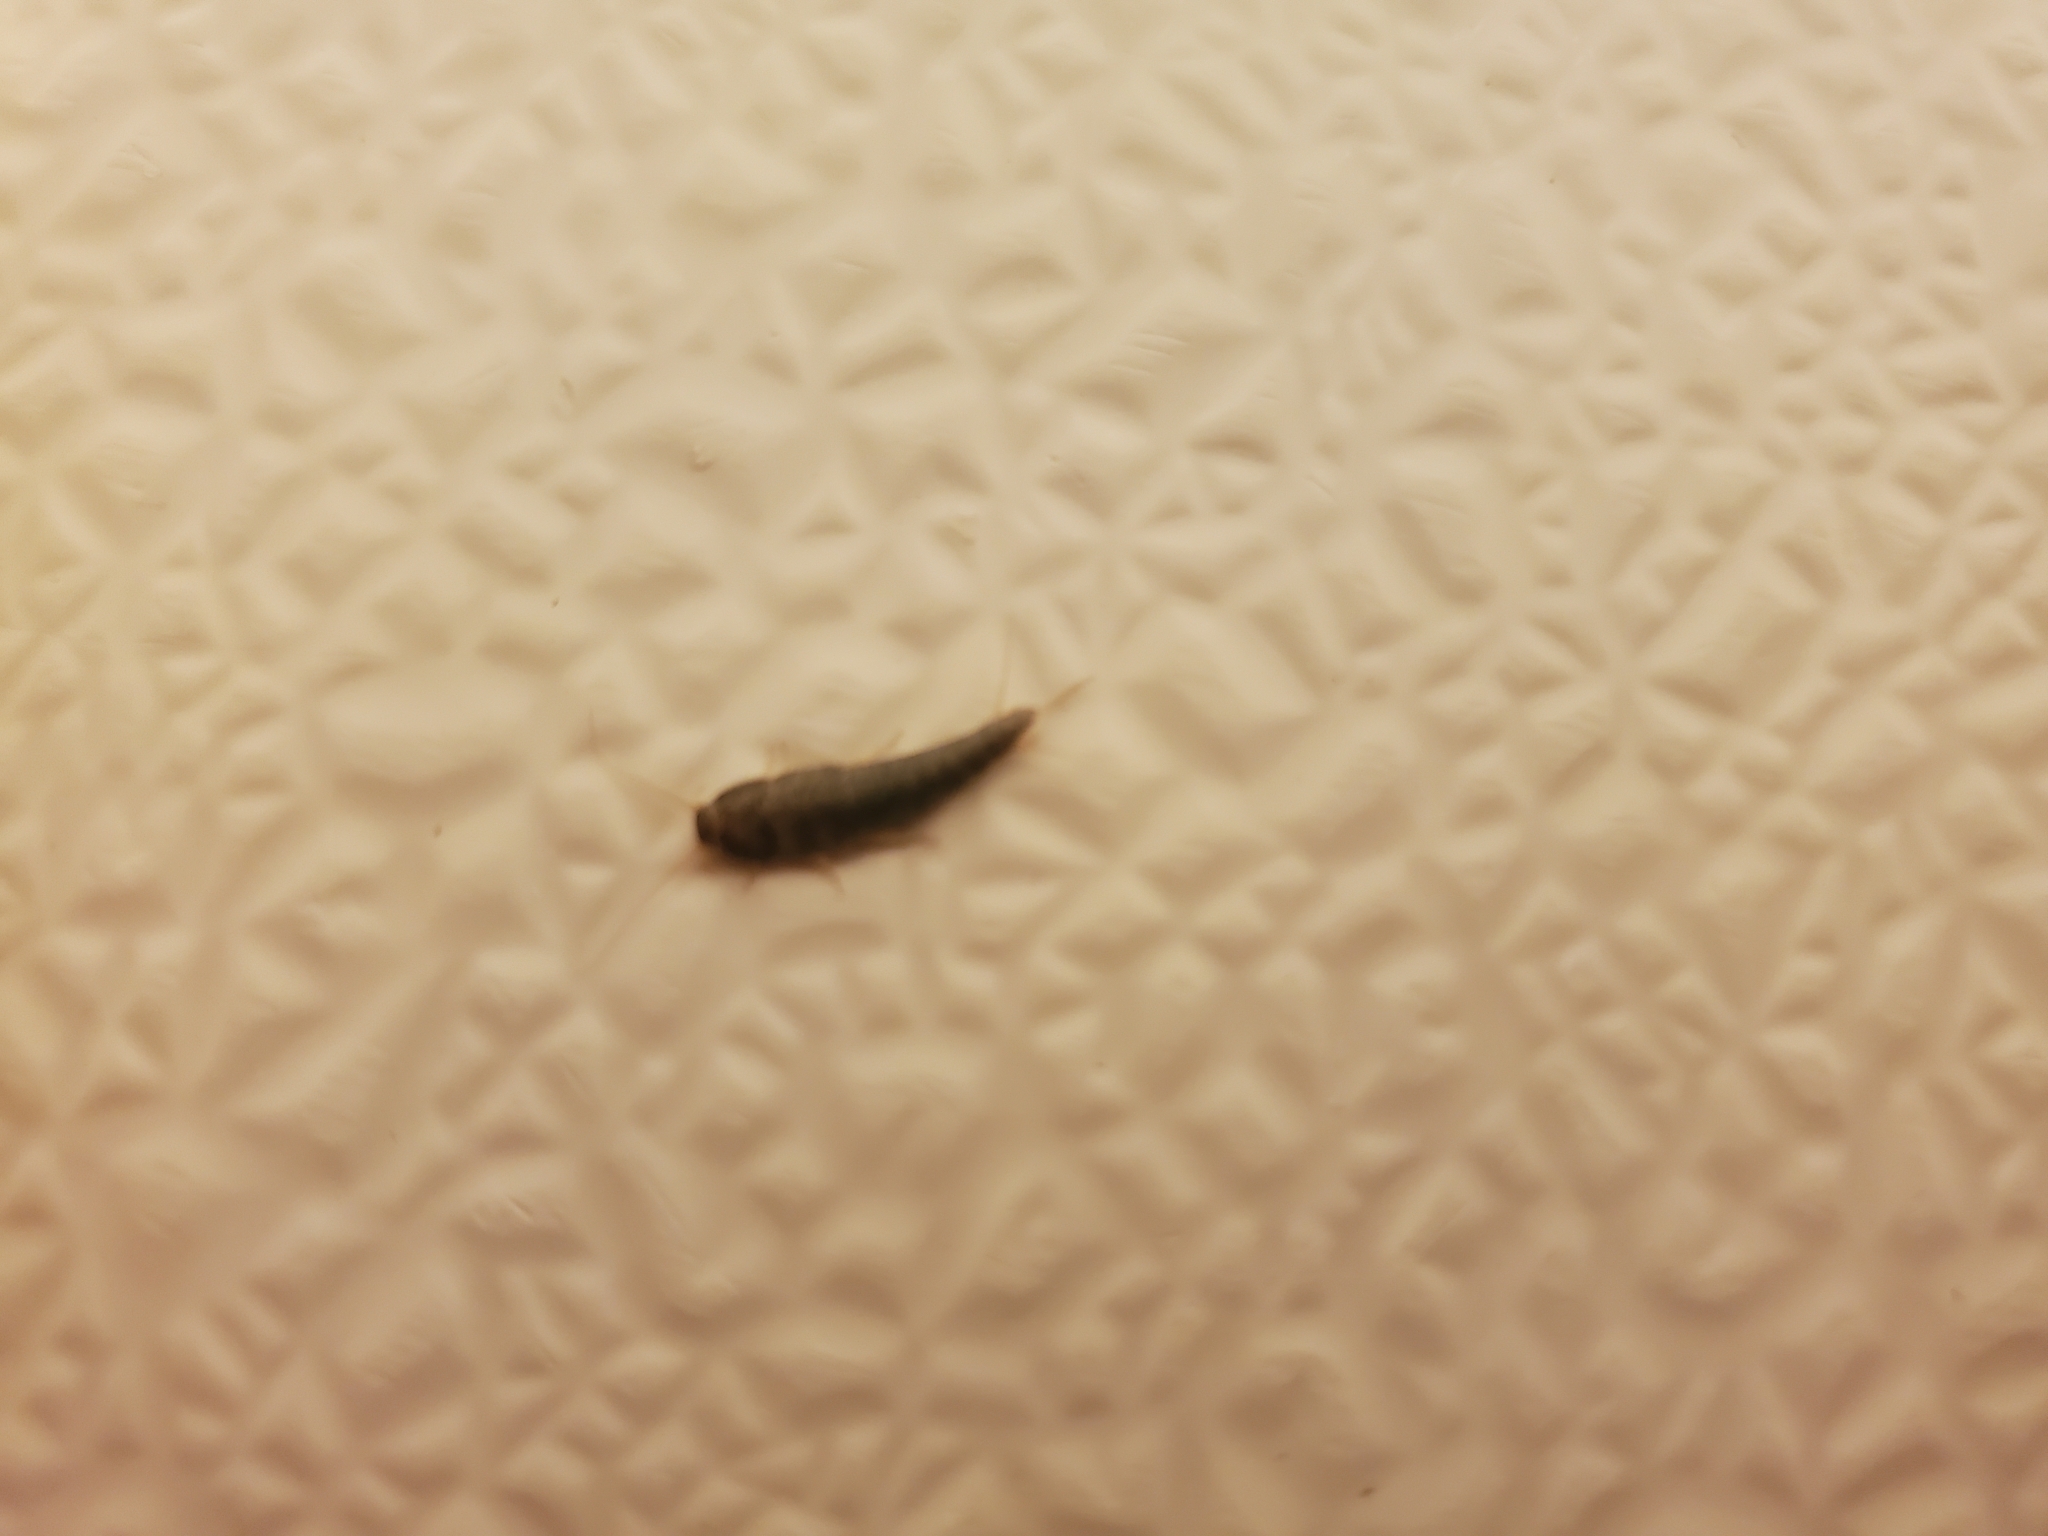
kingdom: Animalia
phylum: Arthropoda
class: Insecta
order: Zygentoma
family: Lepismatidae
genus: Lepisma
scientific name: Lepisma saccharinum
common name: Silverfish
